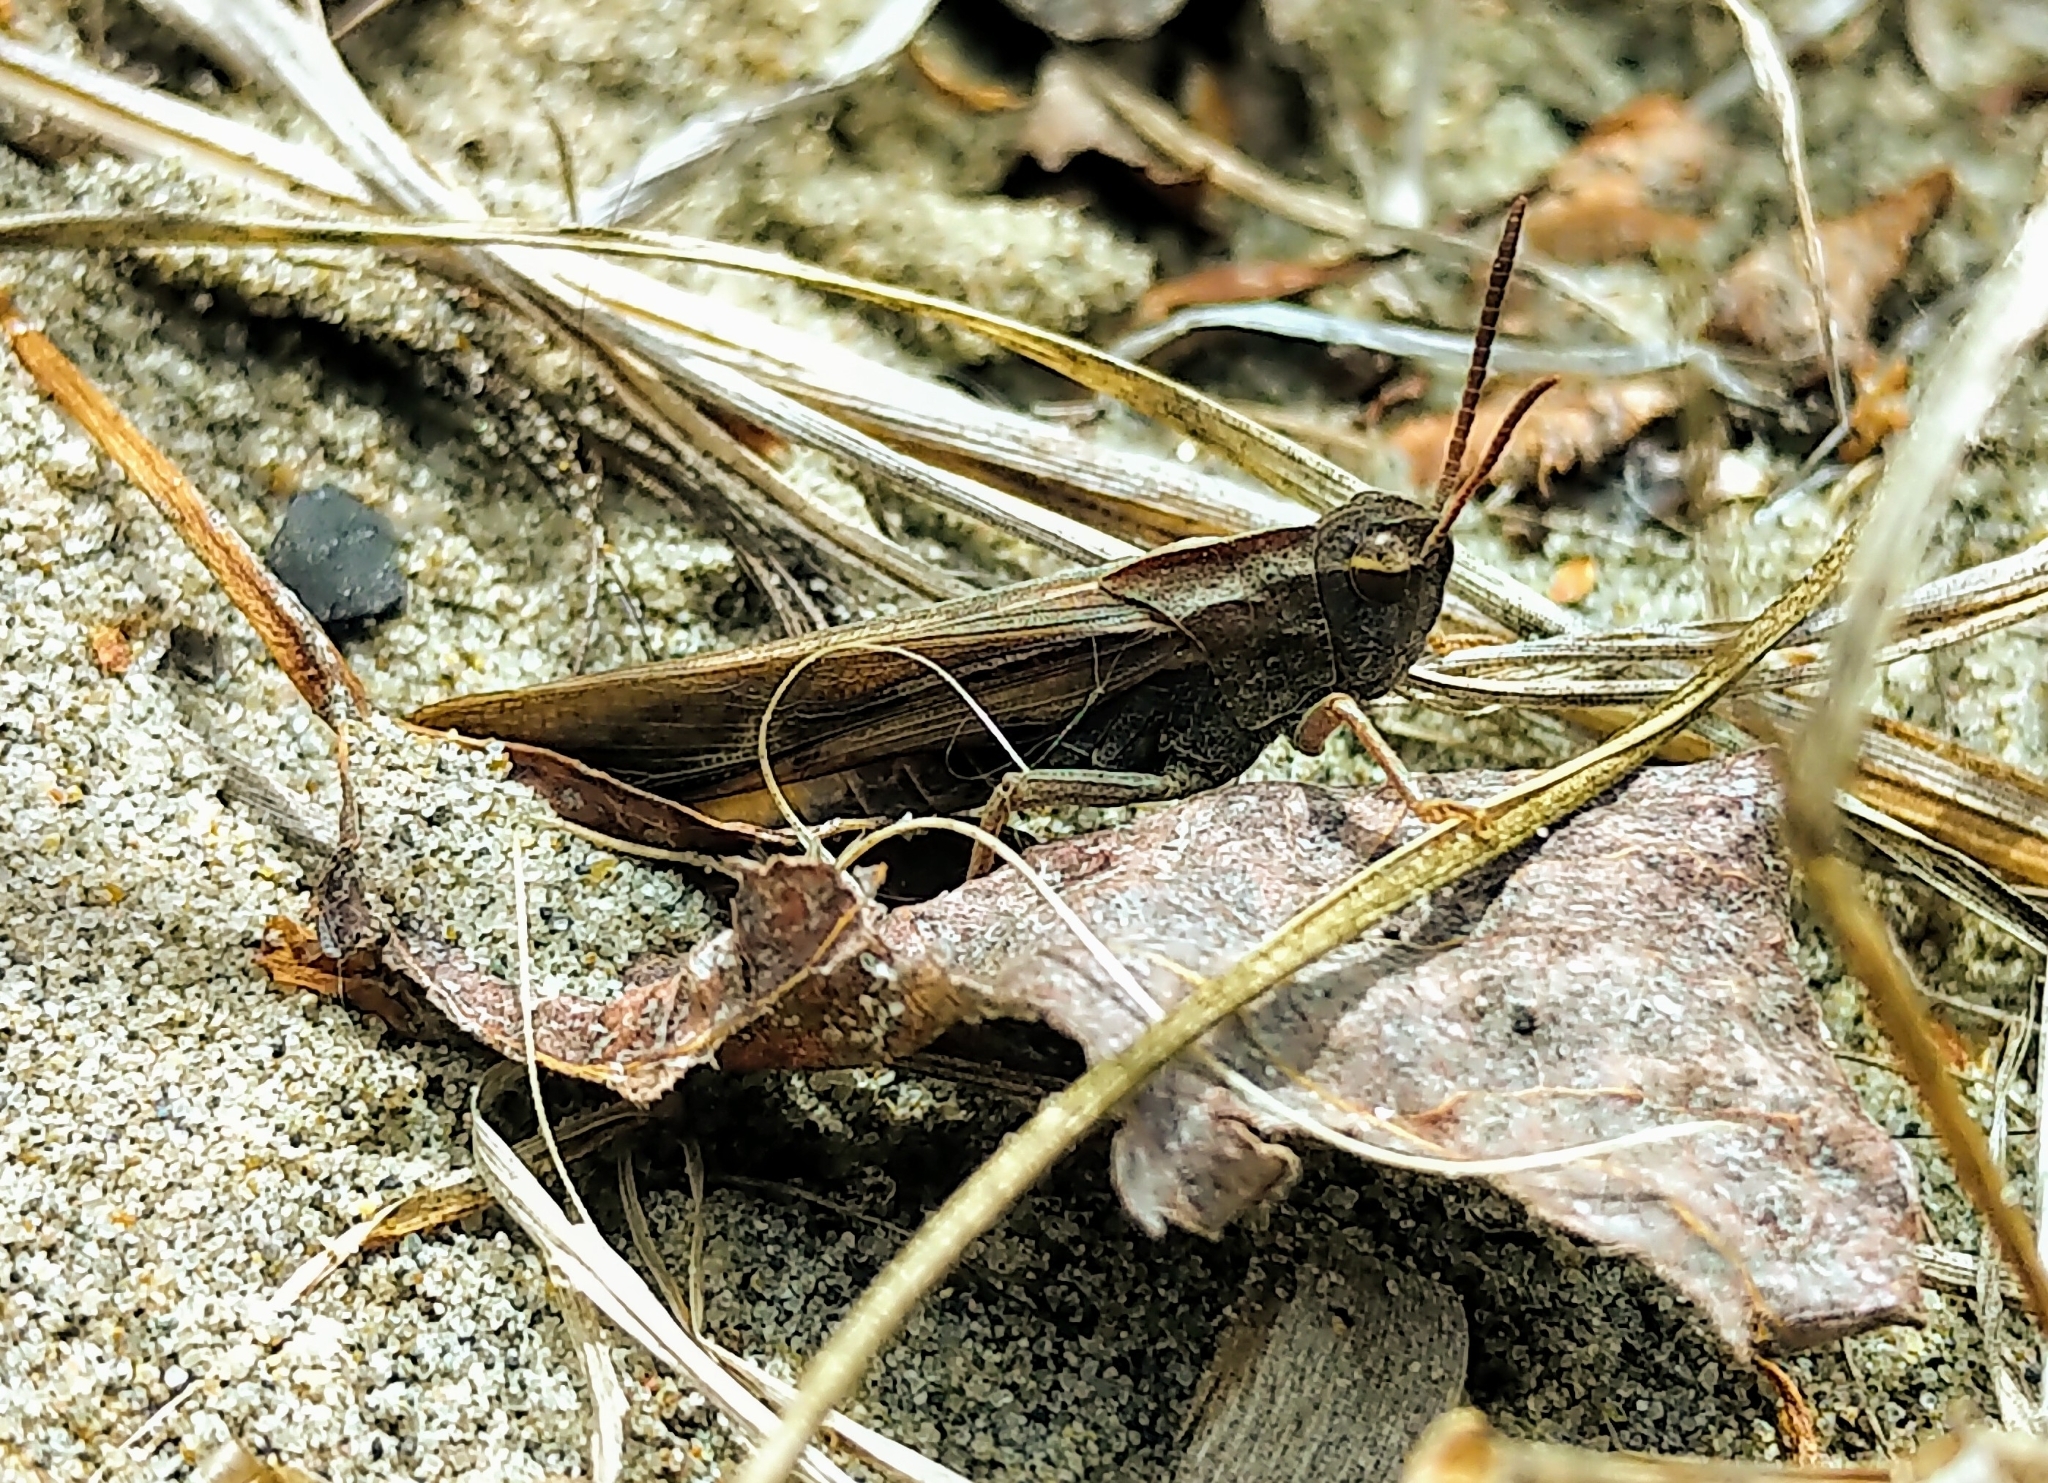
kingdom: Animalia
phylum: Arthropoda
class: Insecta
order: Orthoptera
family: Acrididae
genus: Chortophaga
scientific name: Chortophaga viridifasciata
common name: Green-striped grasshopper
